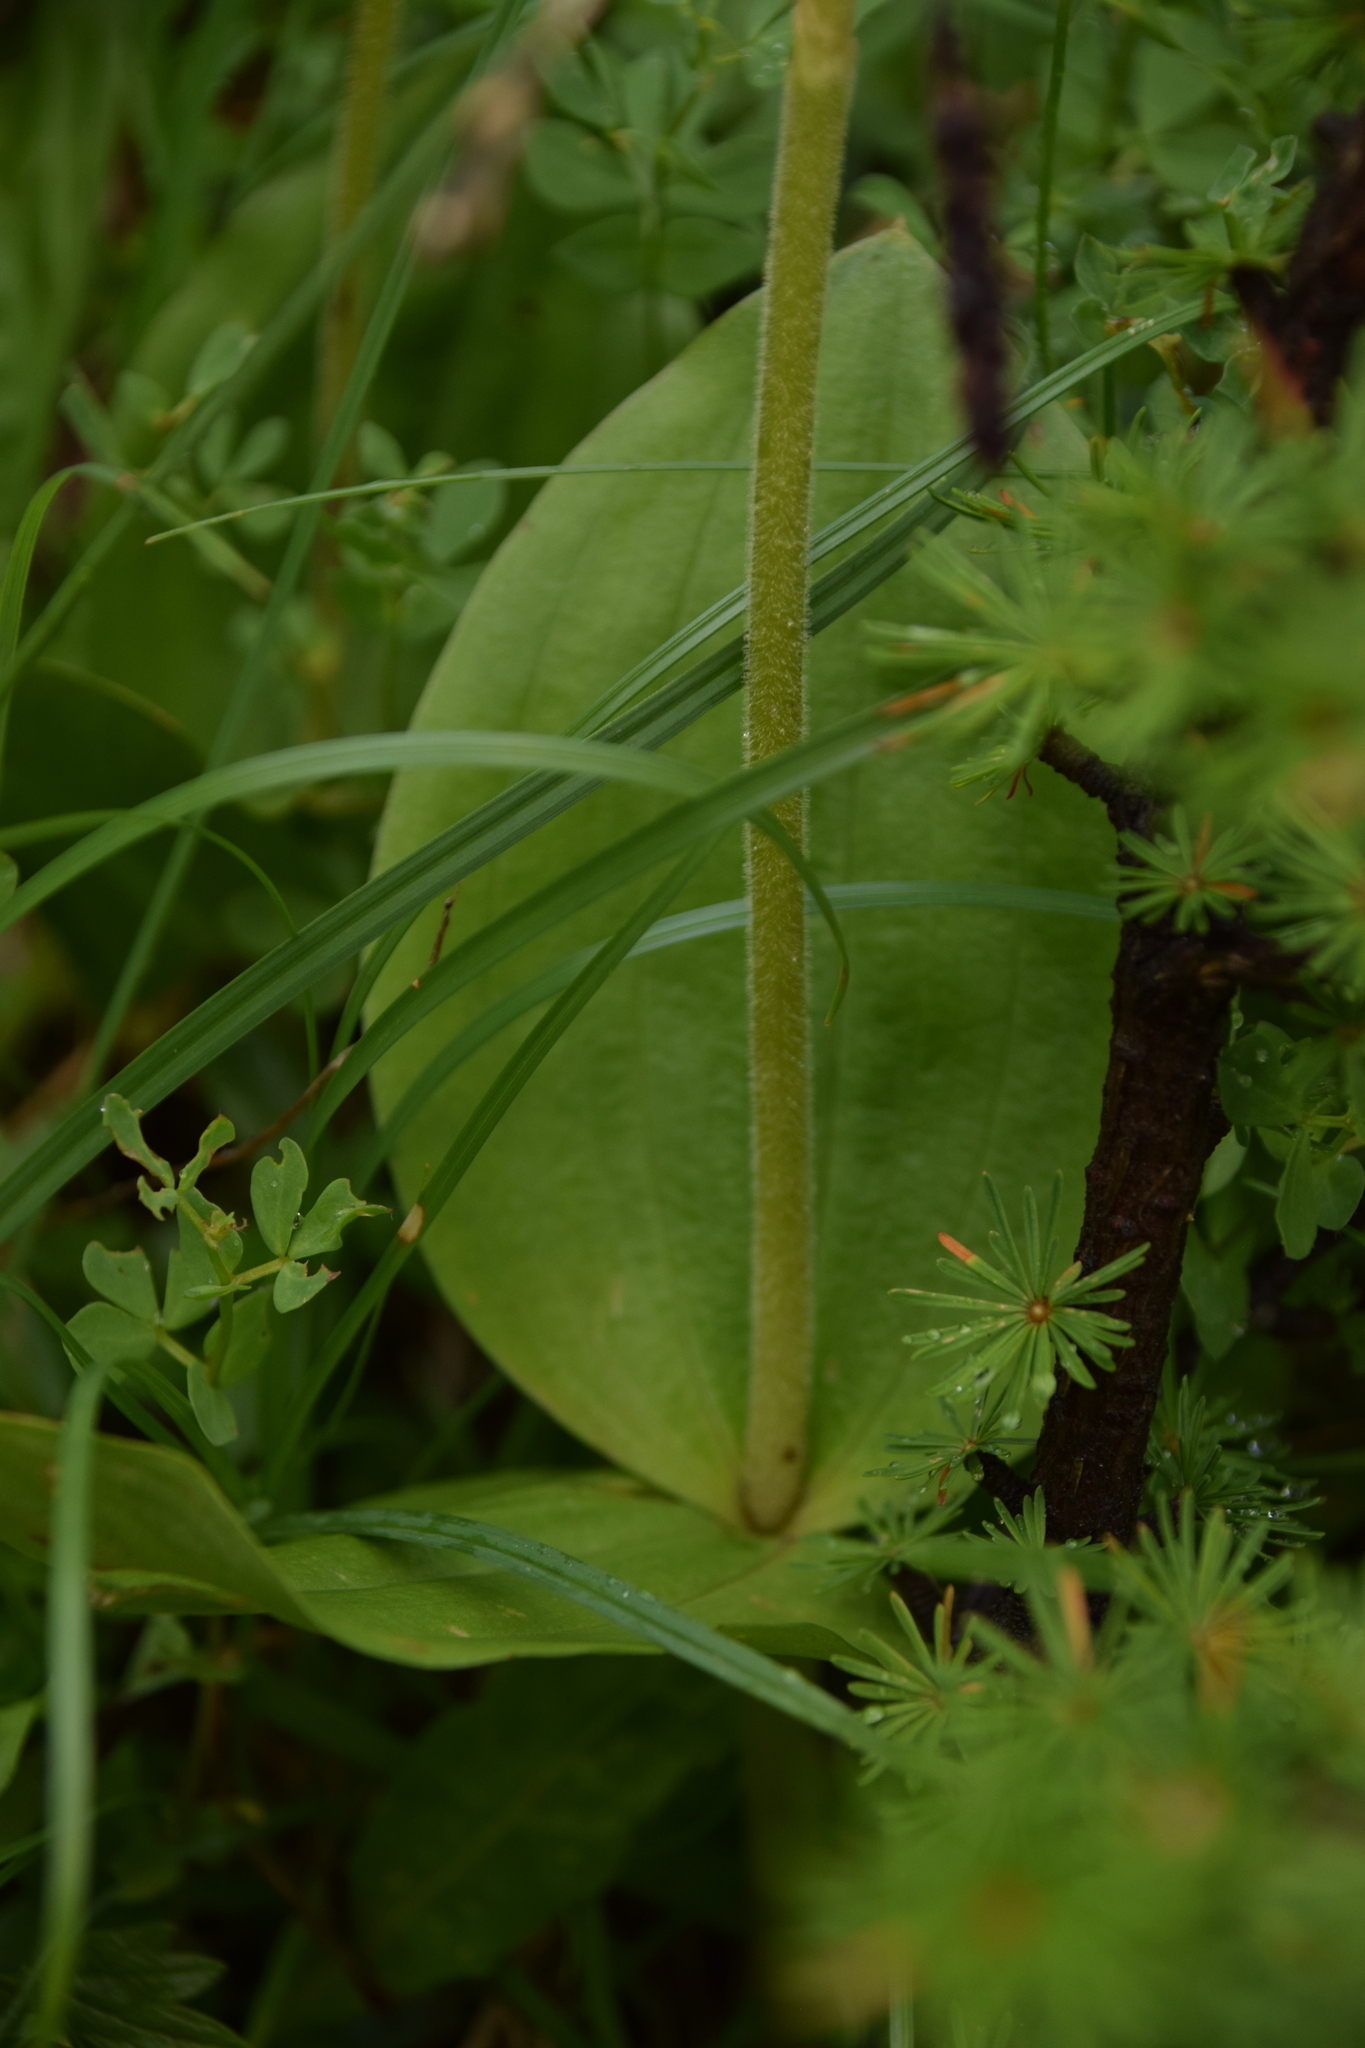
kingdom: Plantae
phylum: Tracheophyta
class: Liliopsida
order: Asparagales
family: Orchidaceae
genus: Neottia
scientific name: Neottia ovata
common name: Common twayblade
